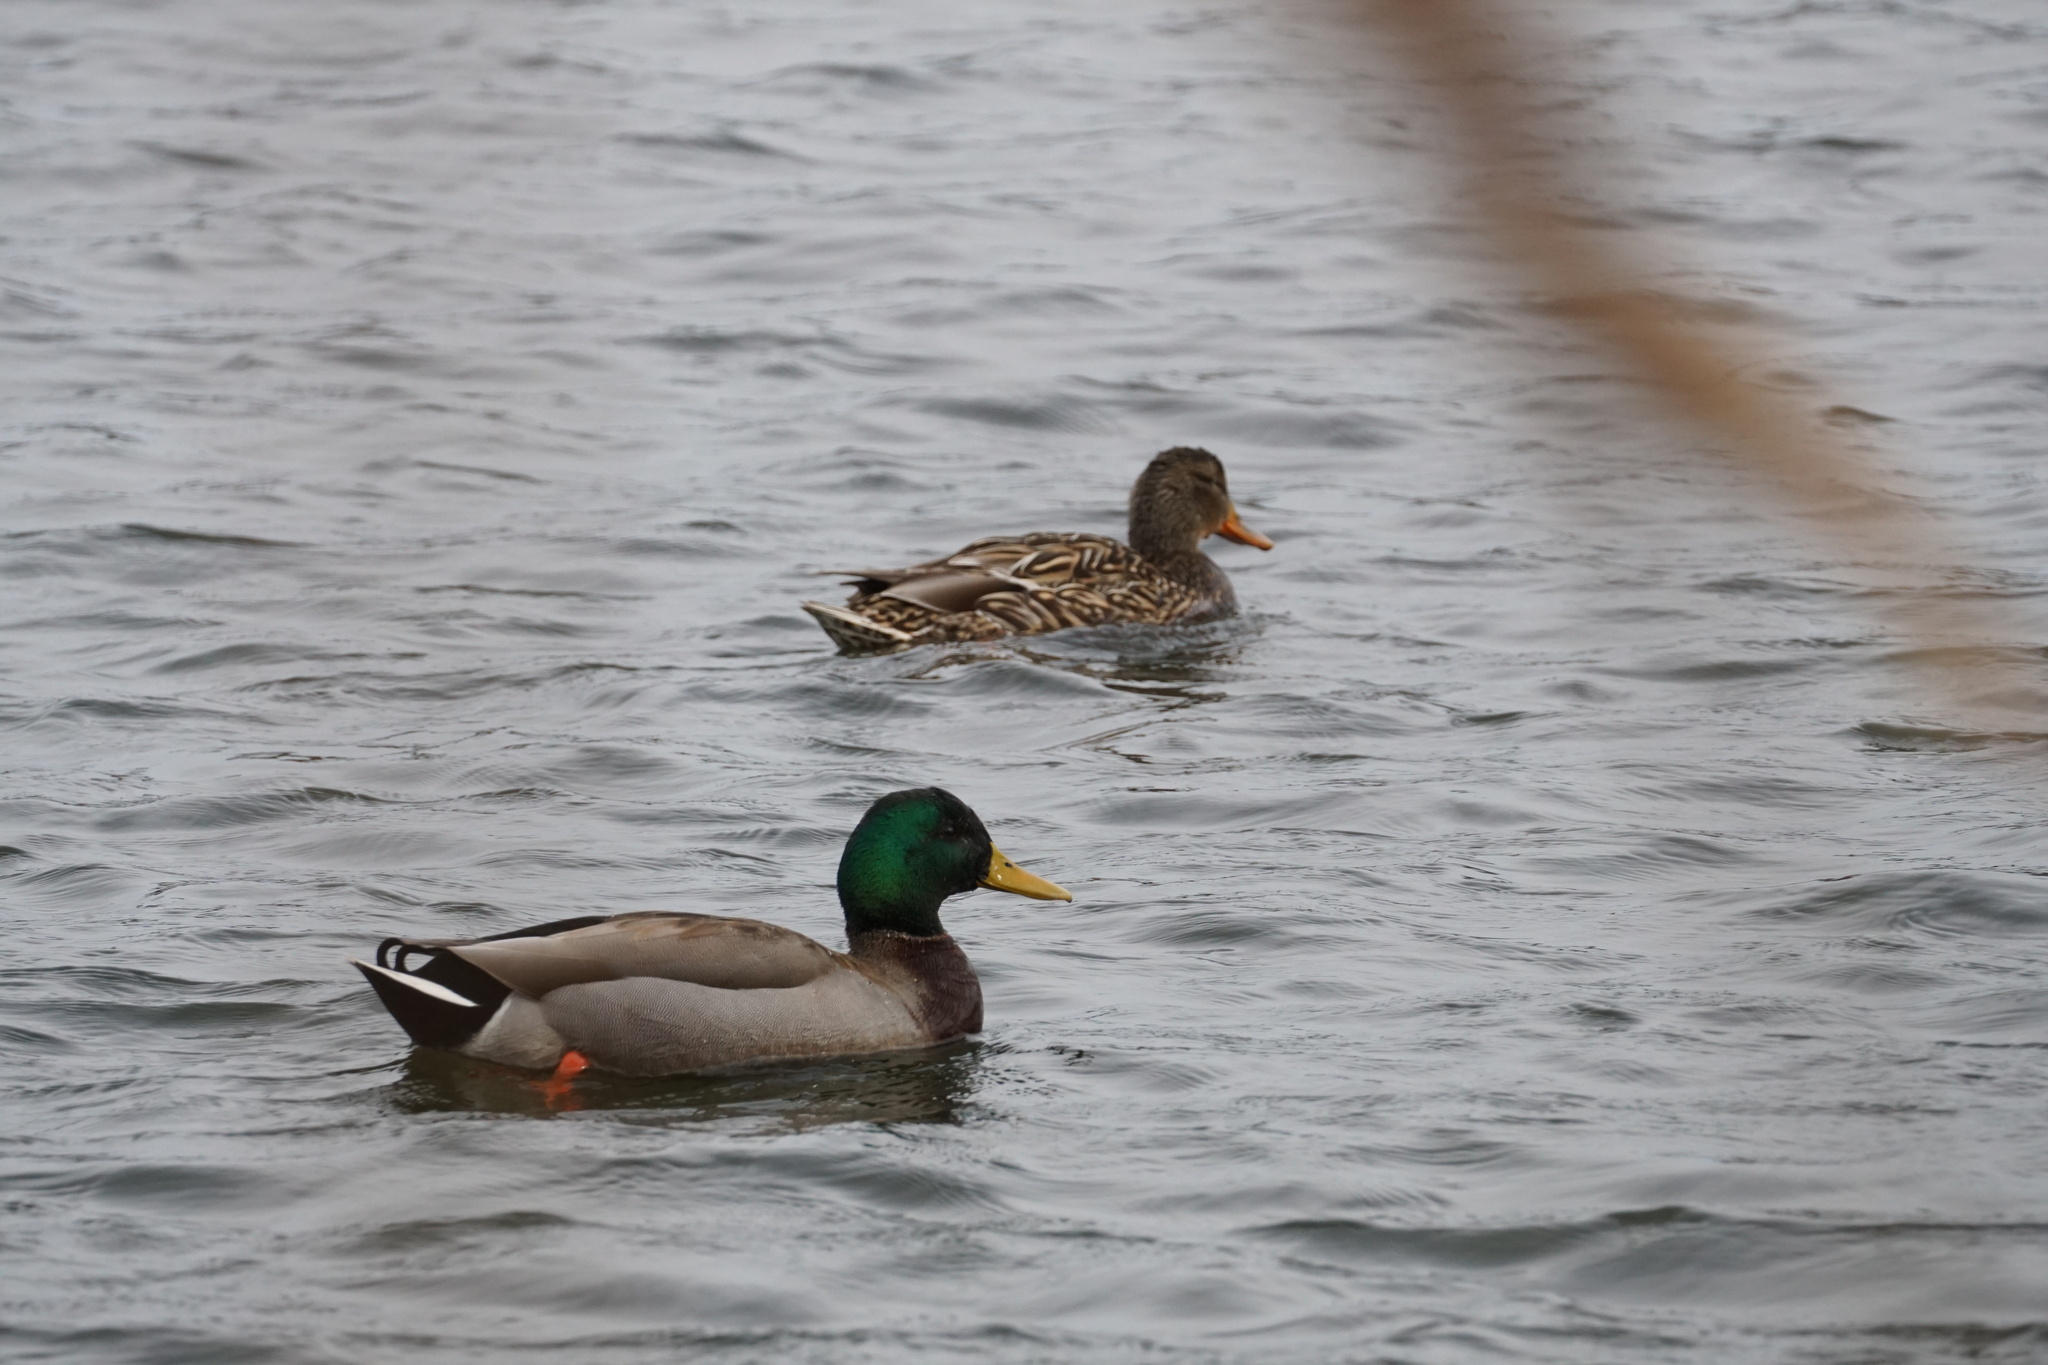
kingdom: Animalia
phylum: Chordata
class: Aves
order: Anseriformes
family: Anatidae
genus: Anas
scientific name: Anas platyrhynchos
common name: Mallard
